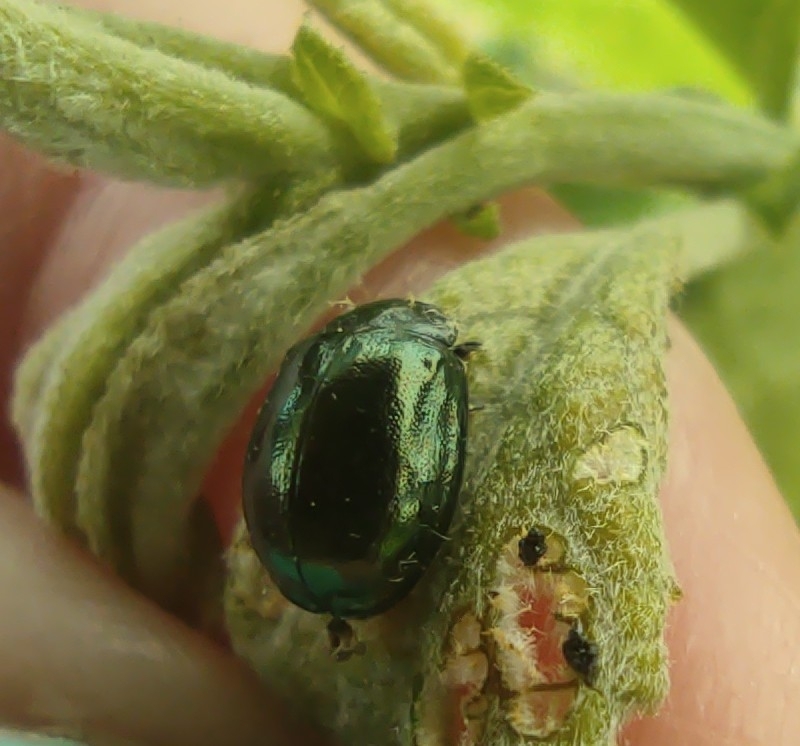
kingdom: Animalia
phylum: Arthropoda
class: Insecta
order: Coleoptera
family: Chrysomelidae
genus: Plagiodera
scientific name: Plagiodera versicolora
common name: Imported willow leaf beetle
